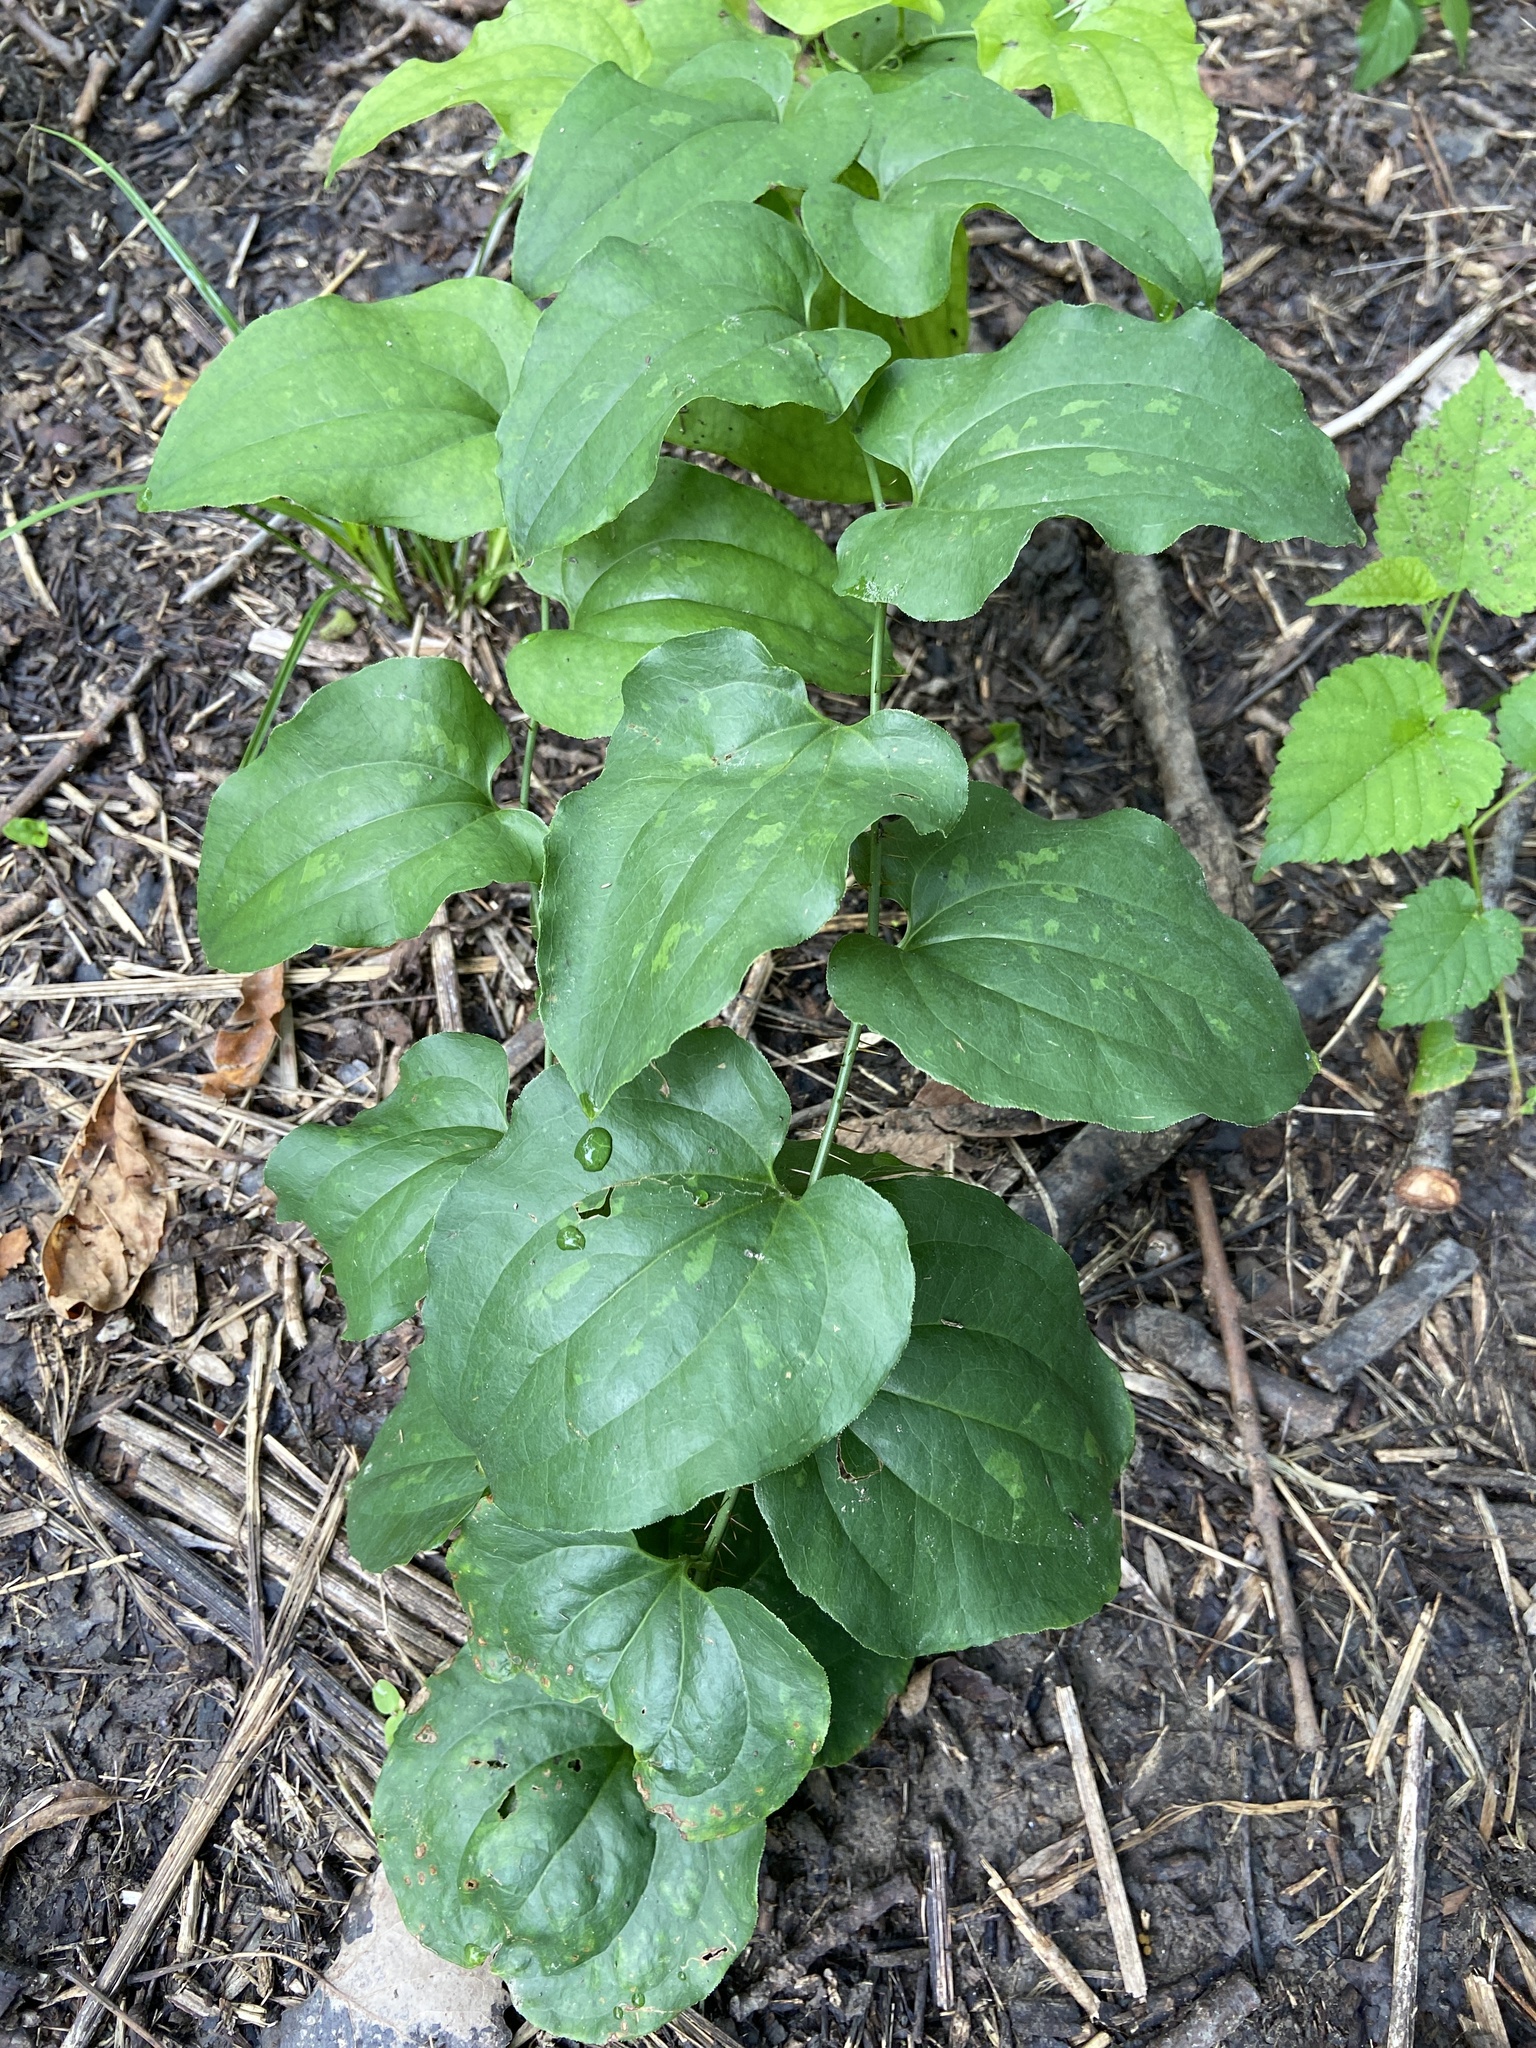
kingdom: Plantae
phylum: Tracheophyta
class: Liliopsida
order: Liliales
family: Smilacaceae
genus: Smilax
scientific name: Smilax tamnoides
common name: Hellfetter
